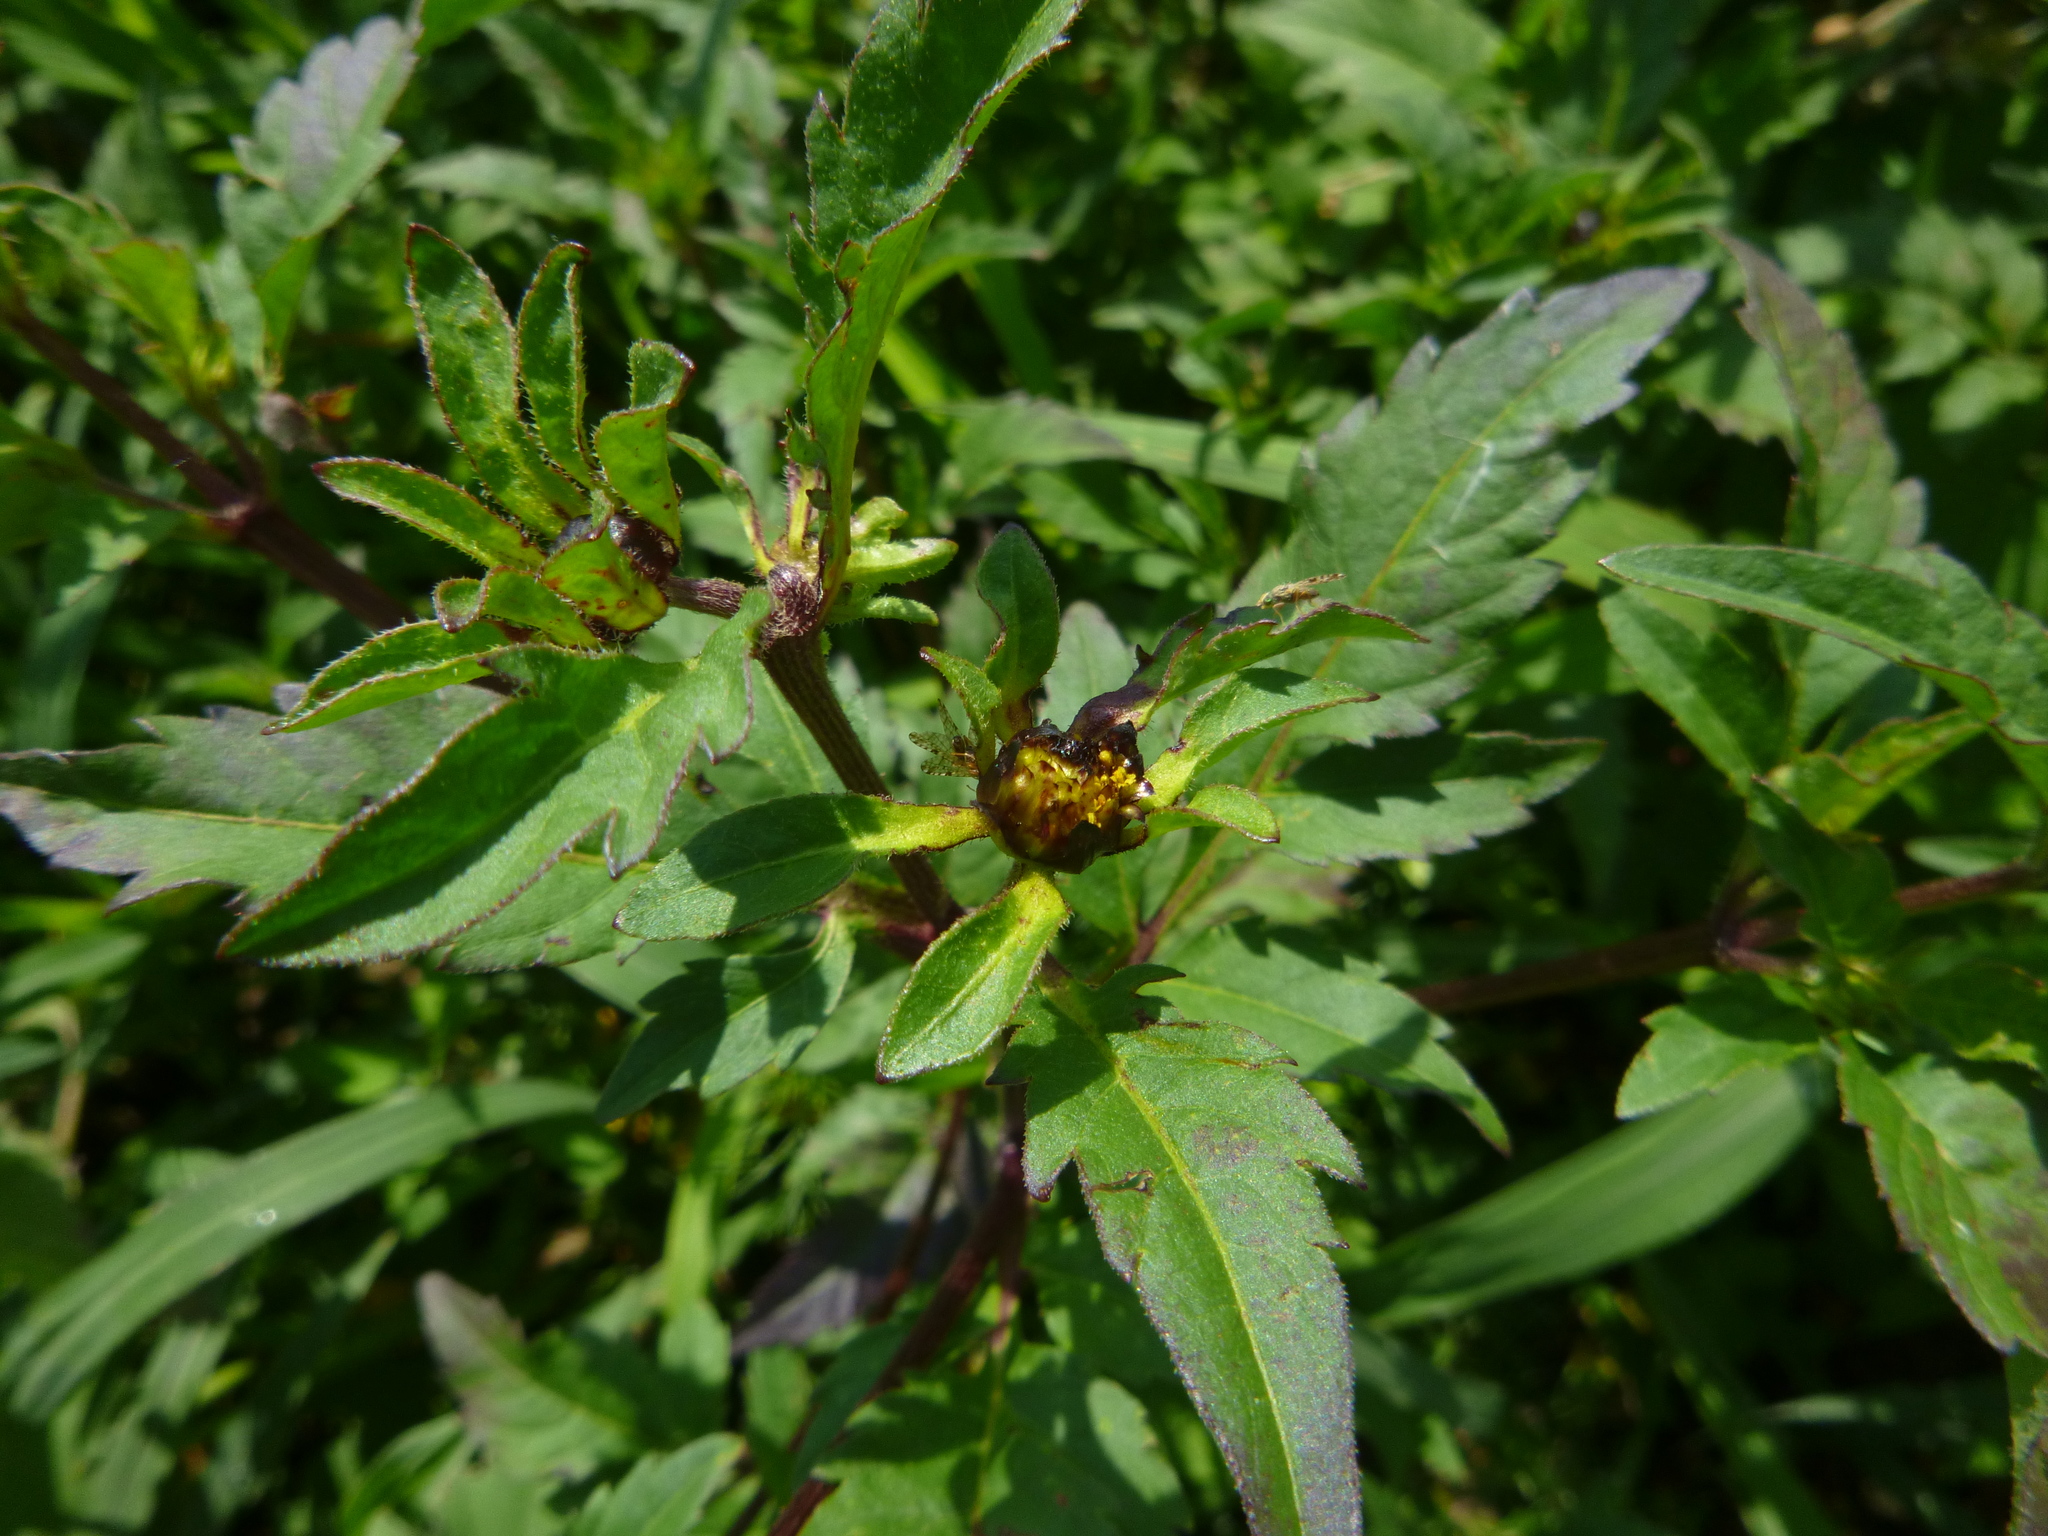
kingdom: Plantae
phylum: Tracheophyta
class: Magnoliopsida
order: Asterales
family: Asteraceae
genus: Bidens
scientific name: Bidens tripartita
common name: Trifid bur-marigold
